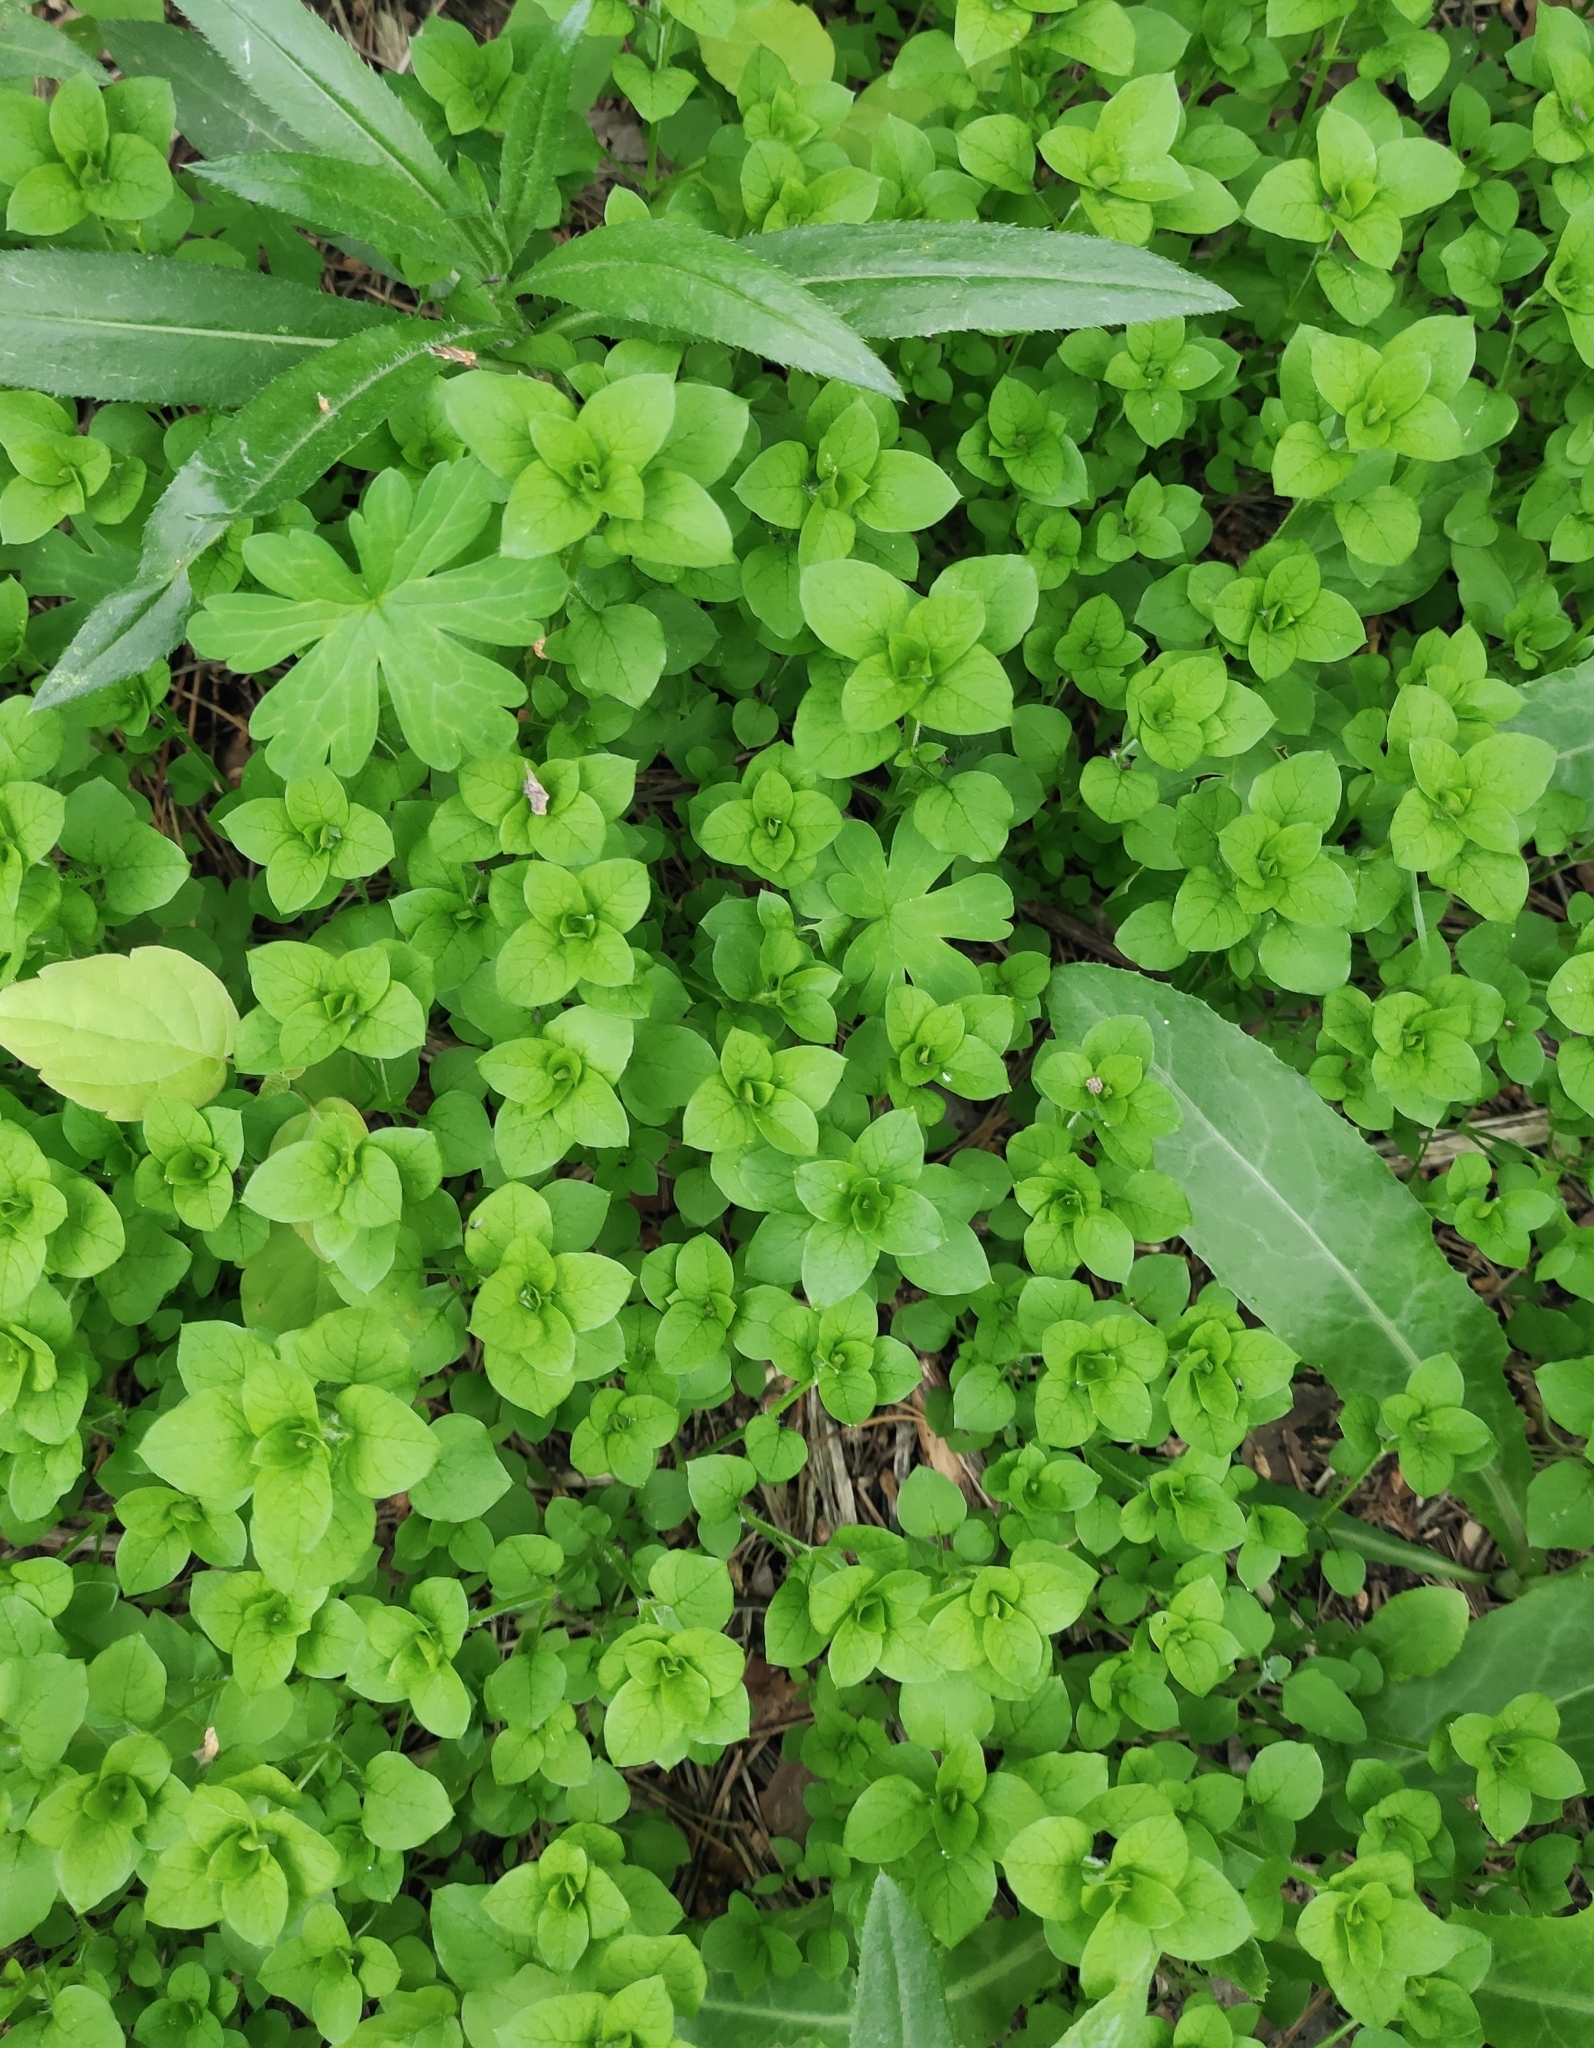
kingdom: Plantae
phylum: Tracheophyta
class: Magnoliopsida
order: Caryophyllales
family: Caryophyllaceae
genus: Stellaria
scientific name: Stellaria media
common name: Common chickweed
